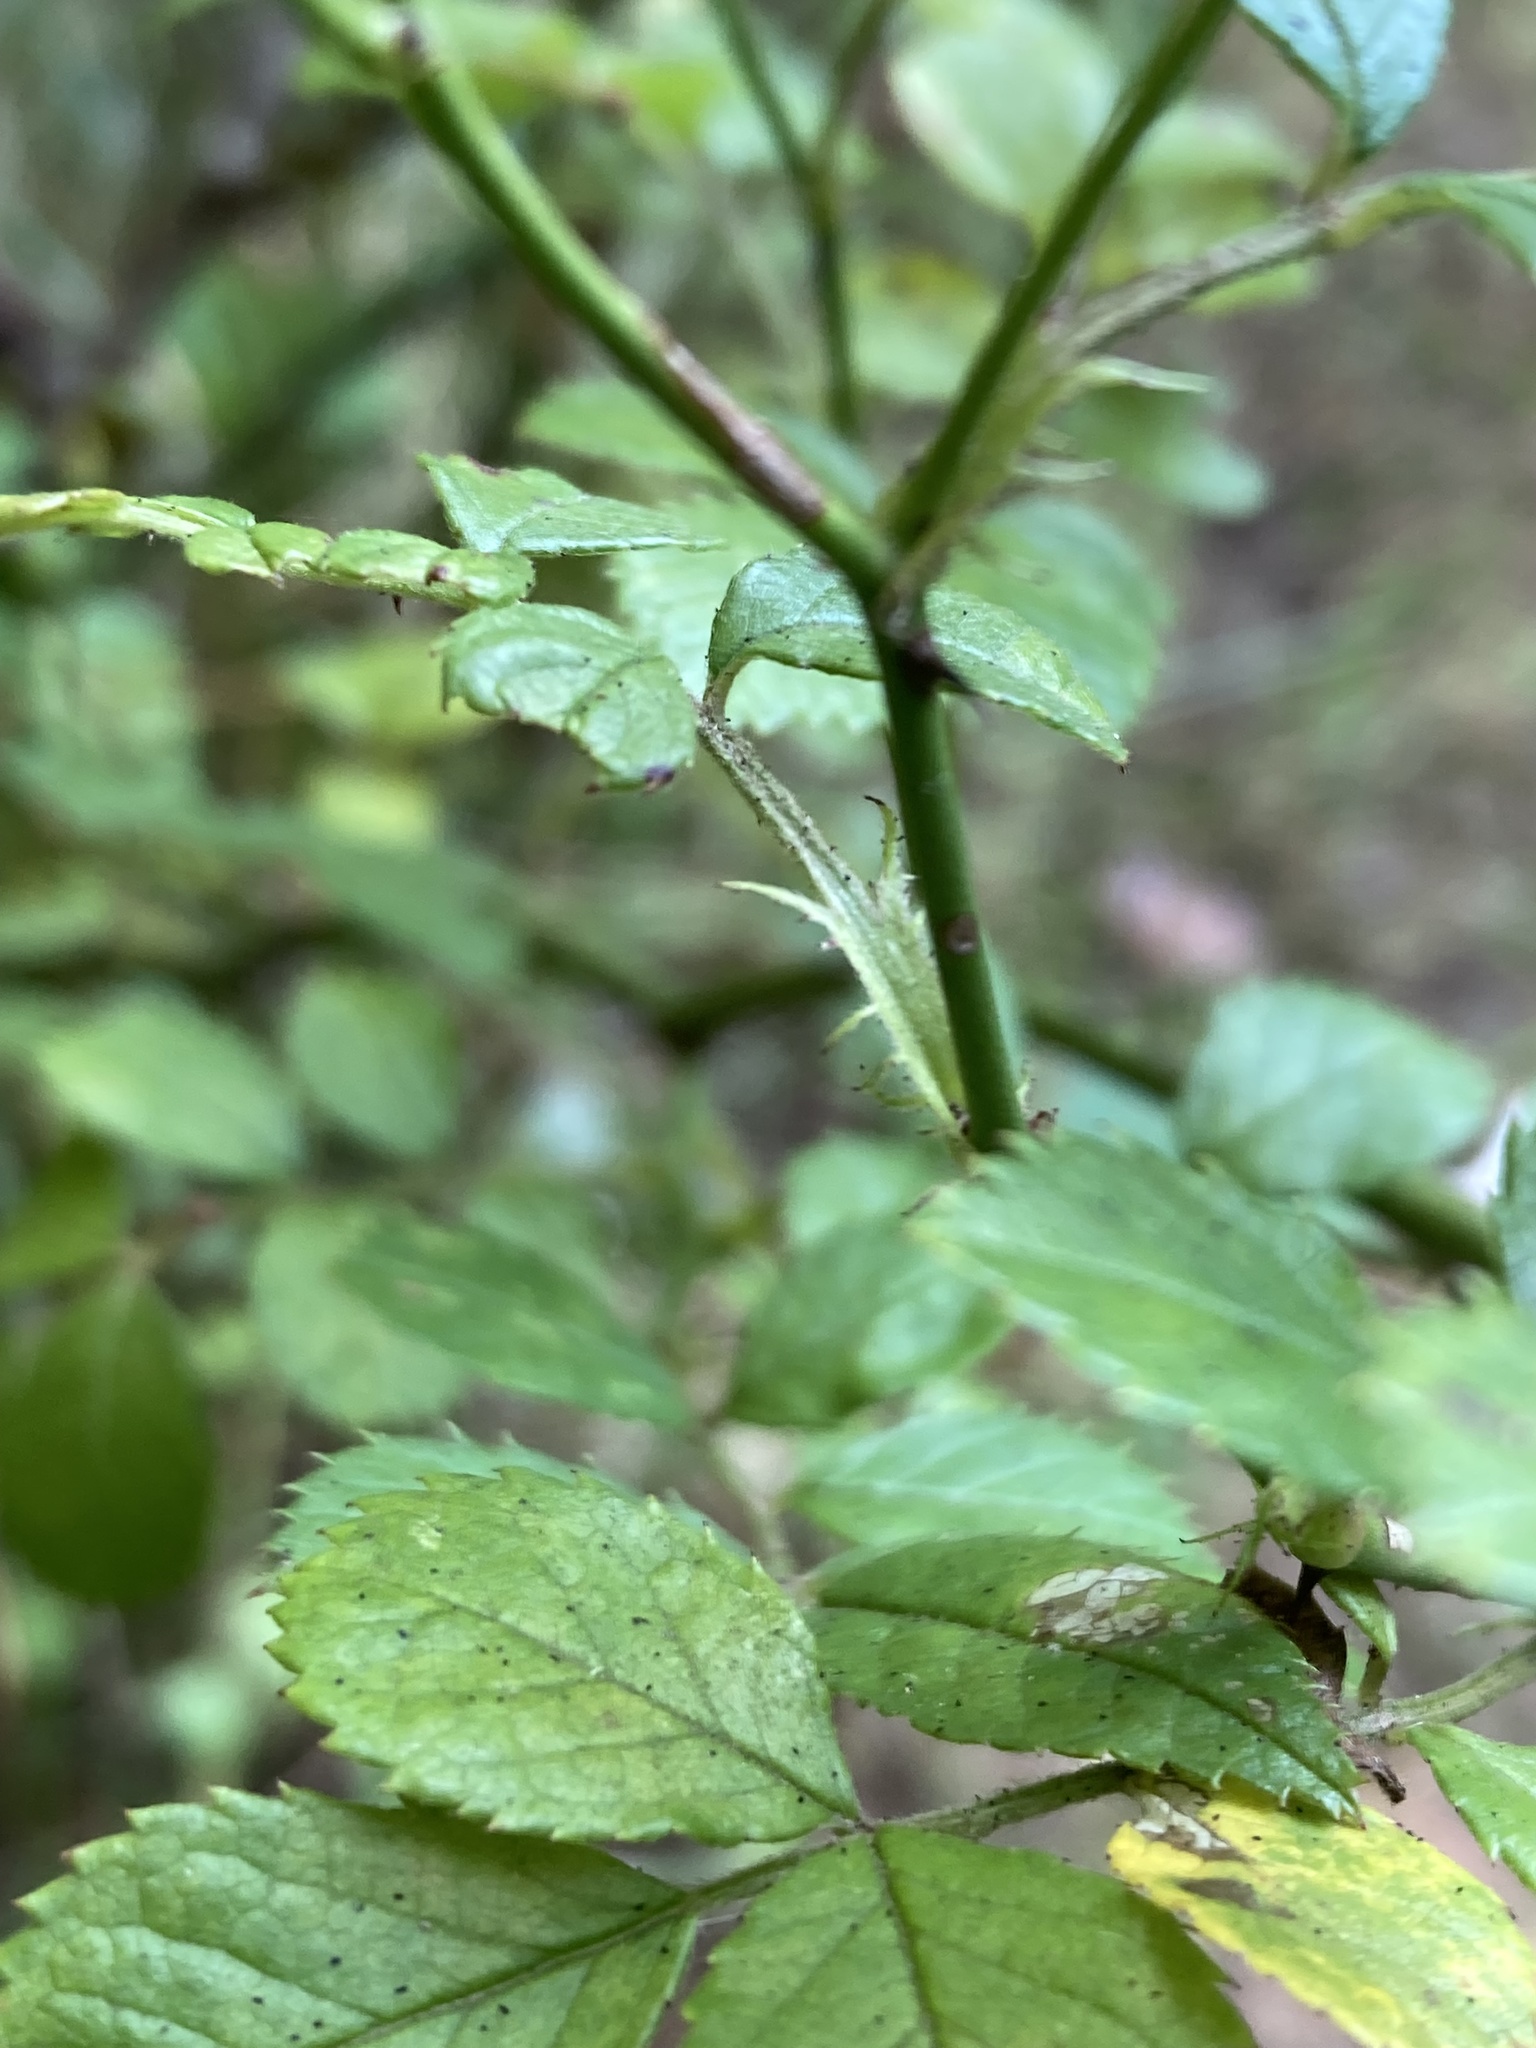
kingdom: Plantae
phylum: Tracheophyta
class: Magnoliopsida
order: Rosales
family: Rosaceae
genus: Rosa
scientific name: Rosa multiflora
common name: Multiflora rose
